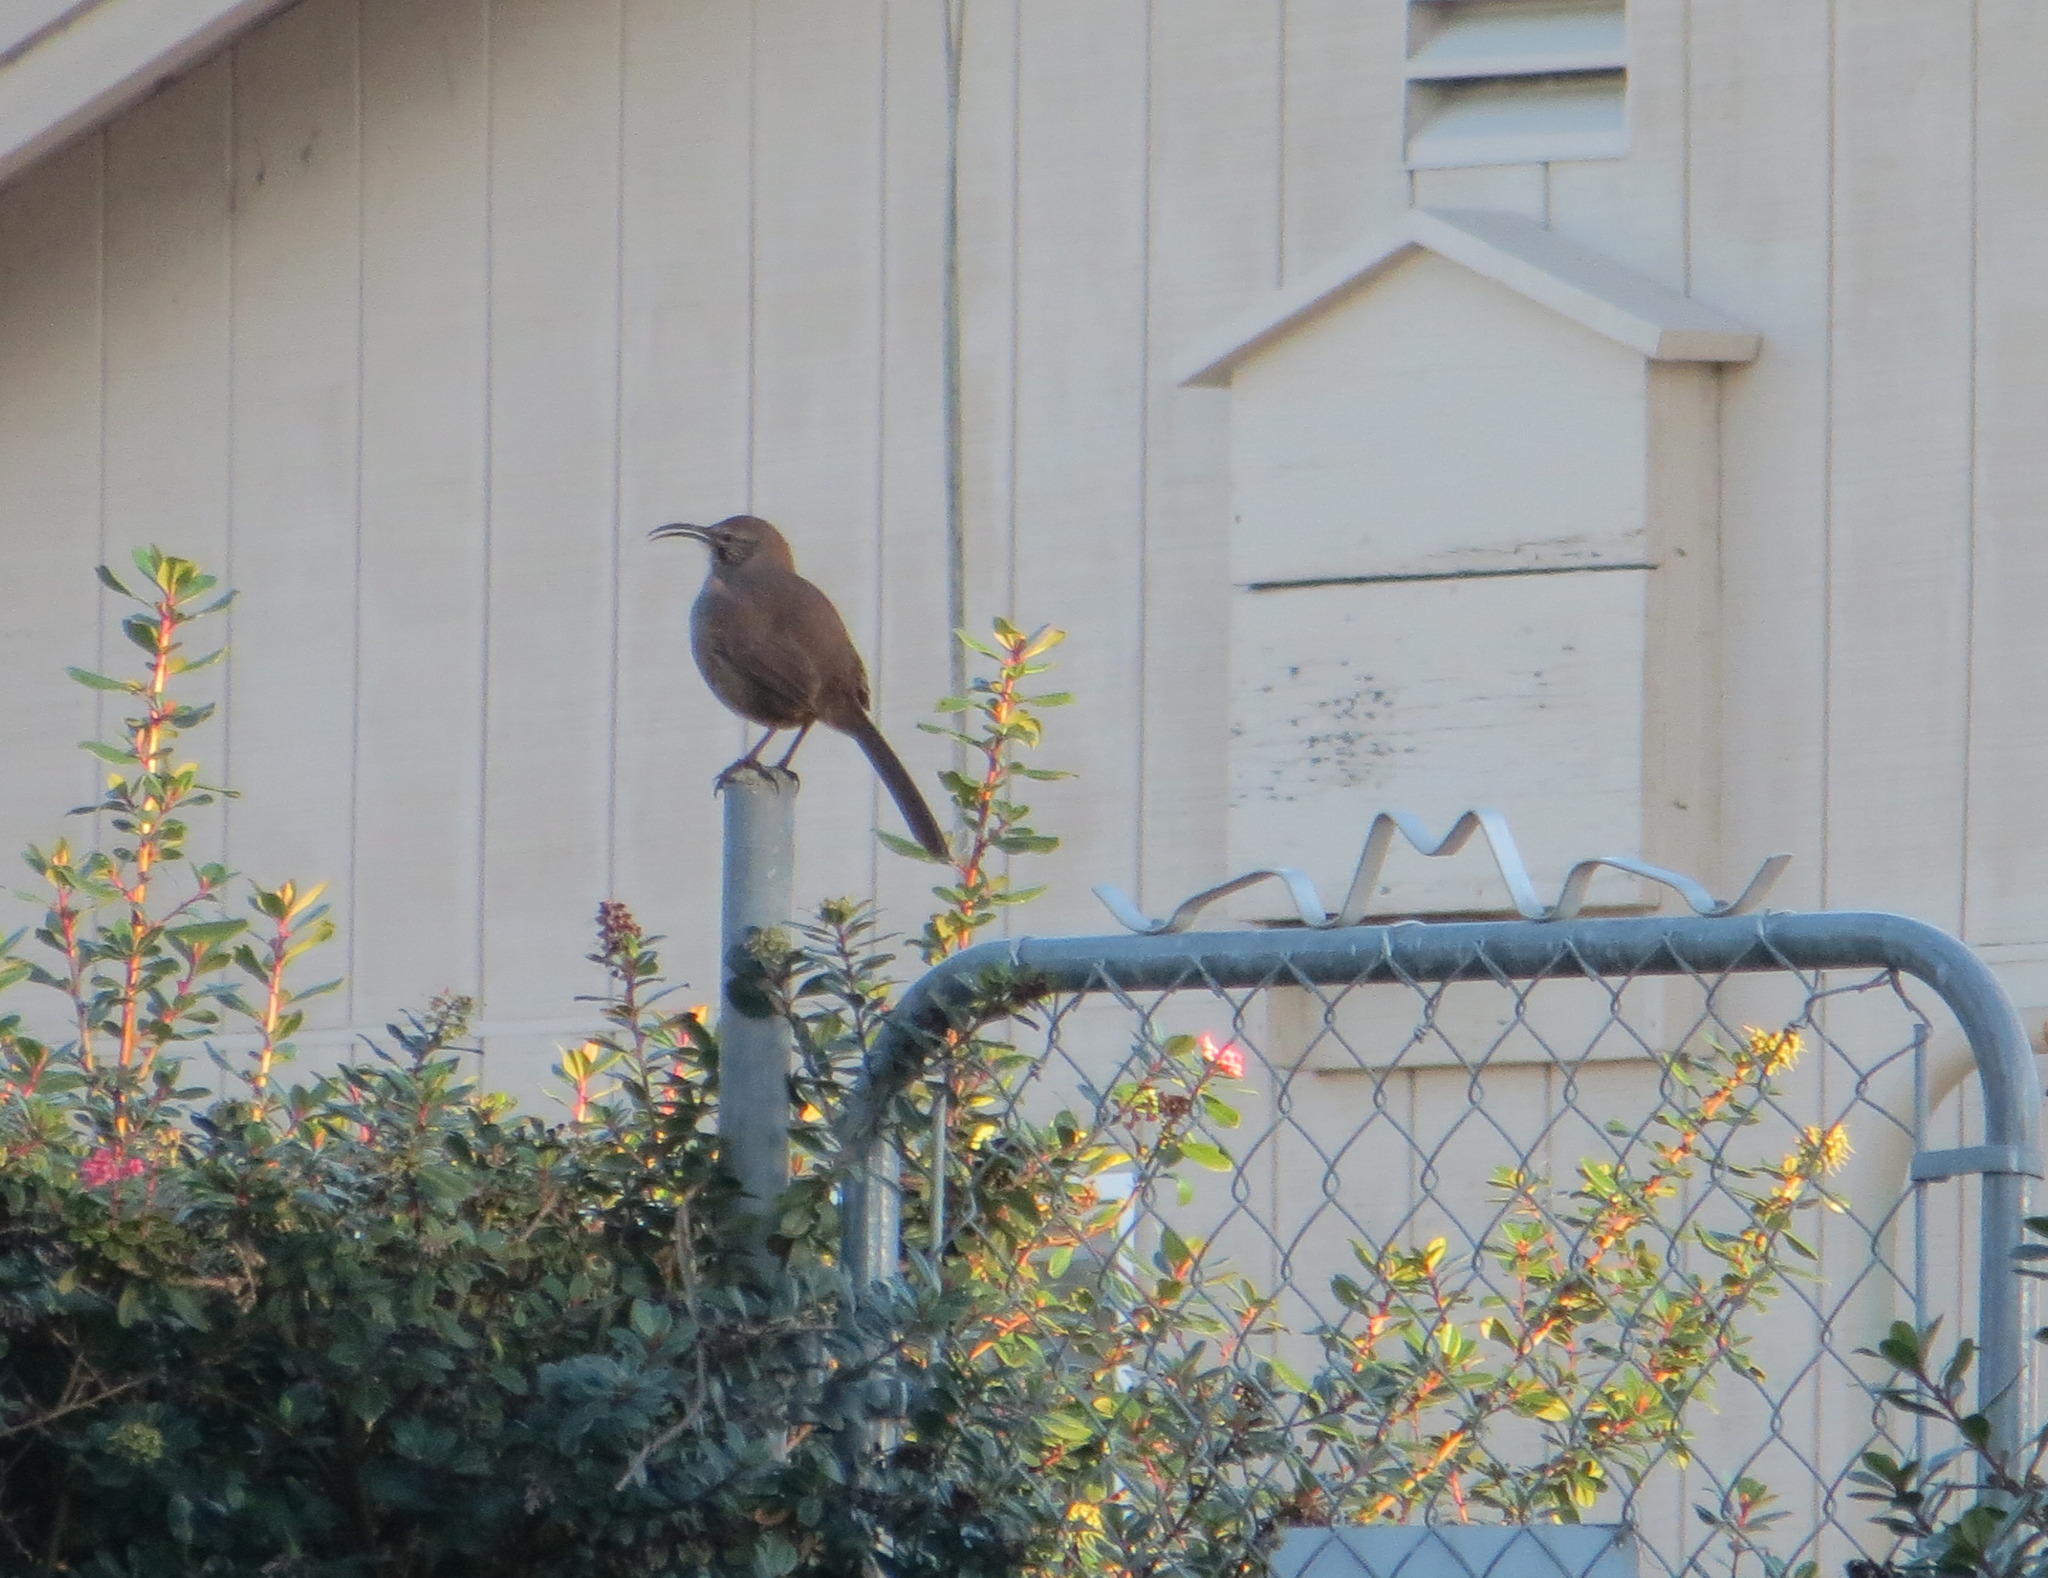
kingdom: Animalia
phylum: Chordata
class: Aves
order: Passeriformes
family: Mimidae
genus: Toxostoma
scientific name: Toxostoma redivivum
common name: California thrasher
